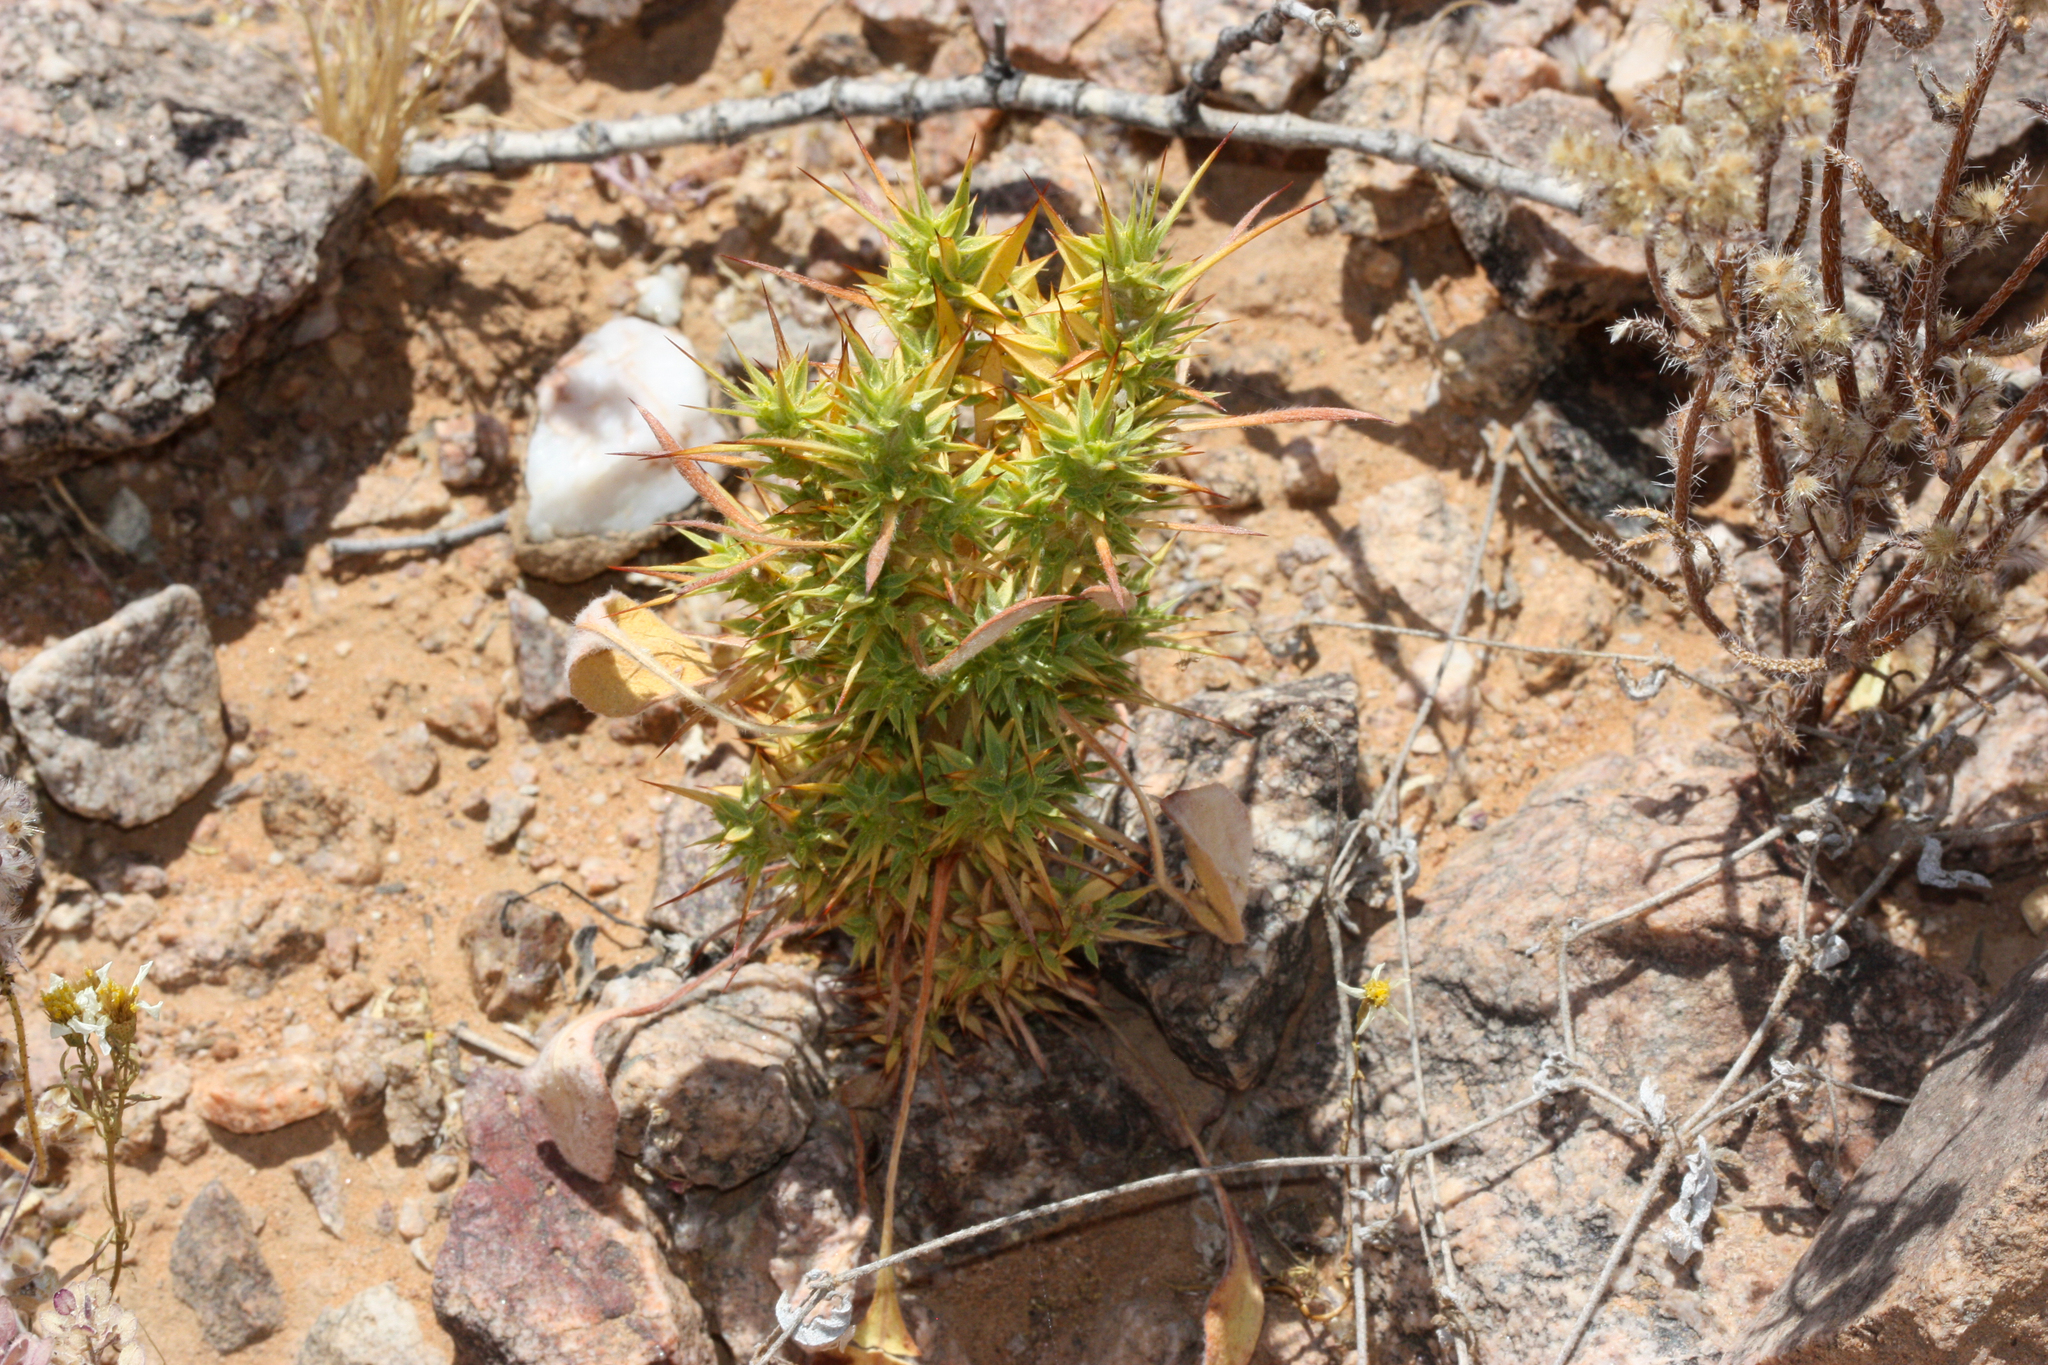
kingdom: Plantae
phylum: Tracheophyta
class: Magnoliopsida
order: Caryophyllales
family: Polygonaceae
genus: Chorizanthe
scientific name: Chorizanthe rigida
